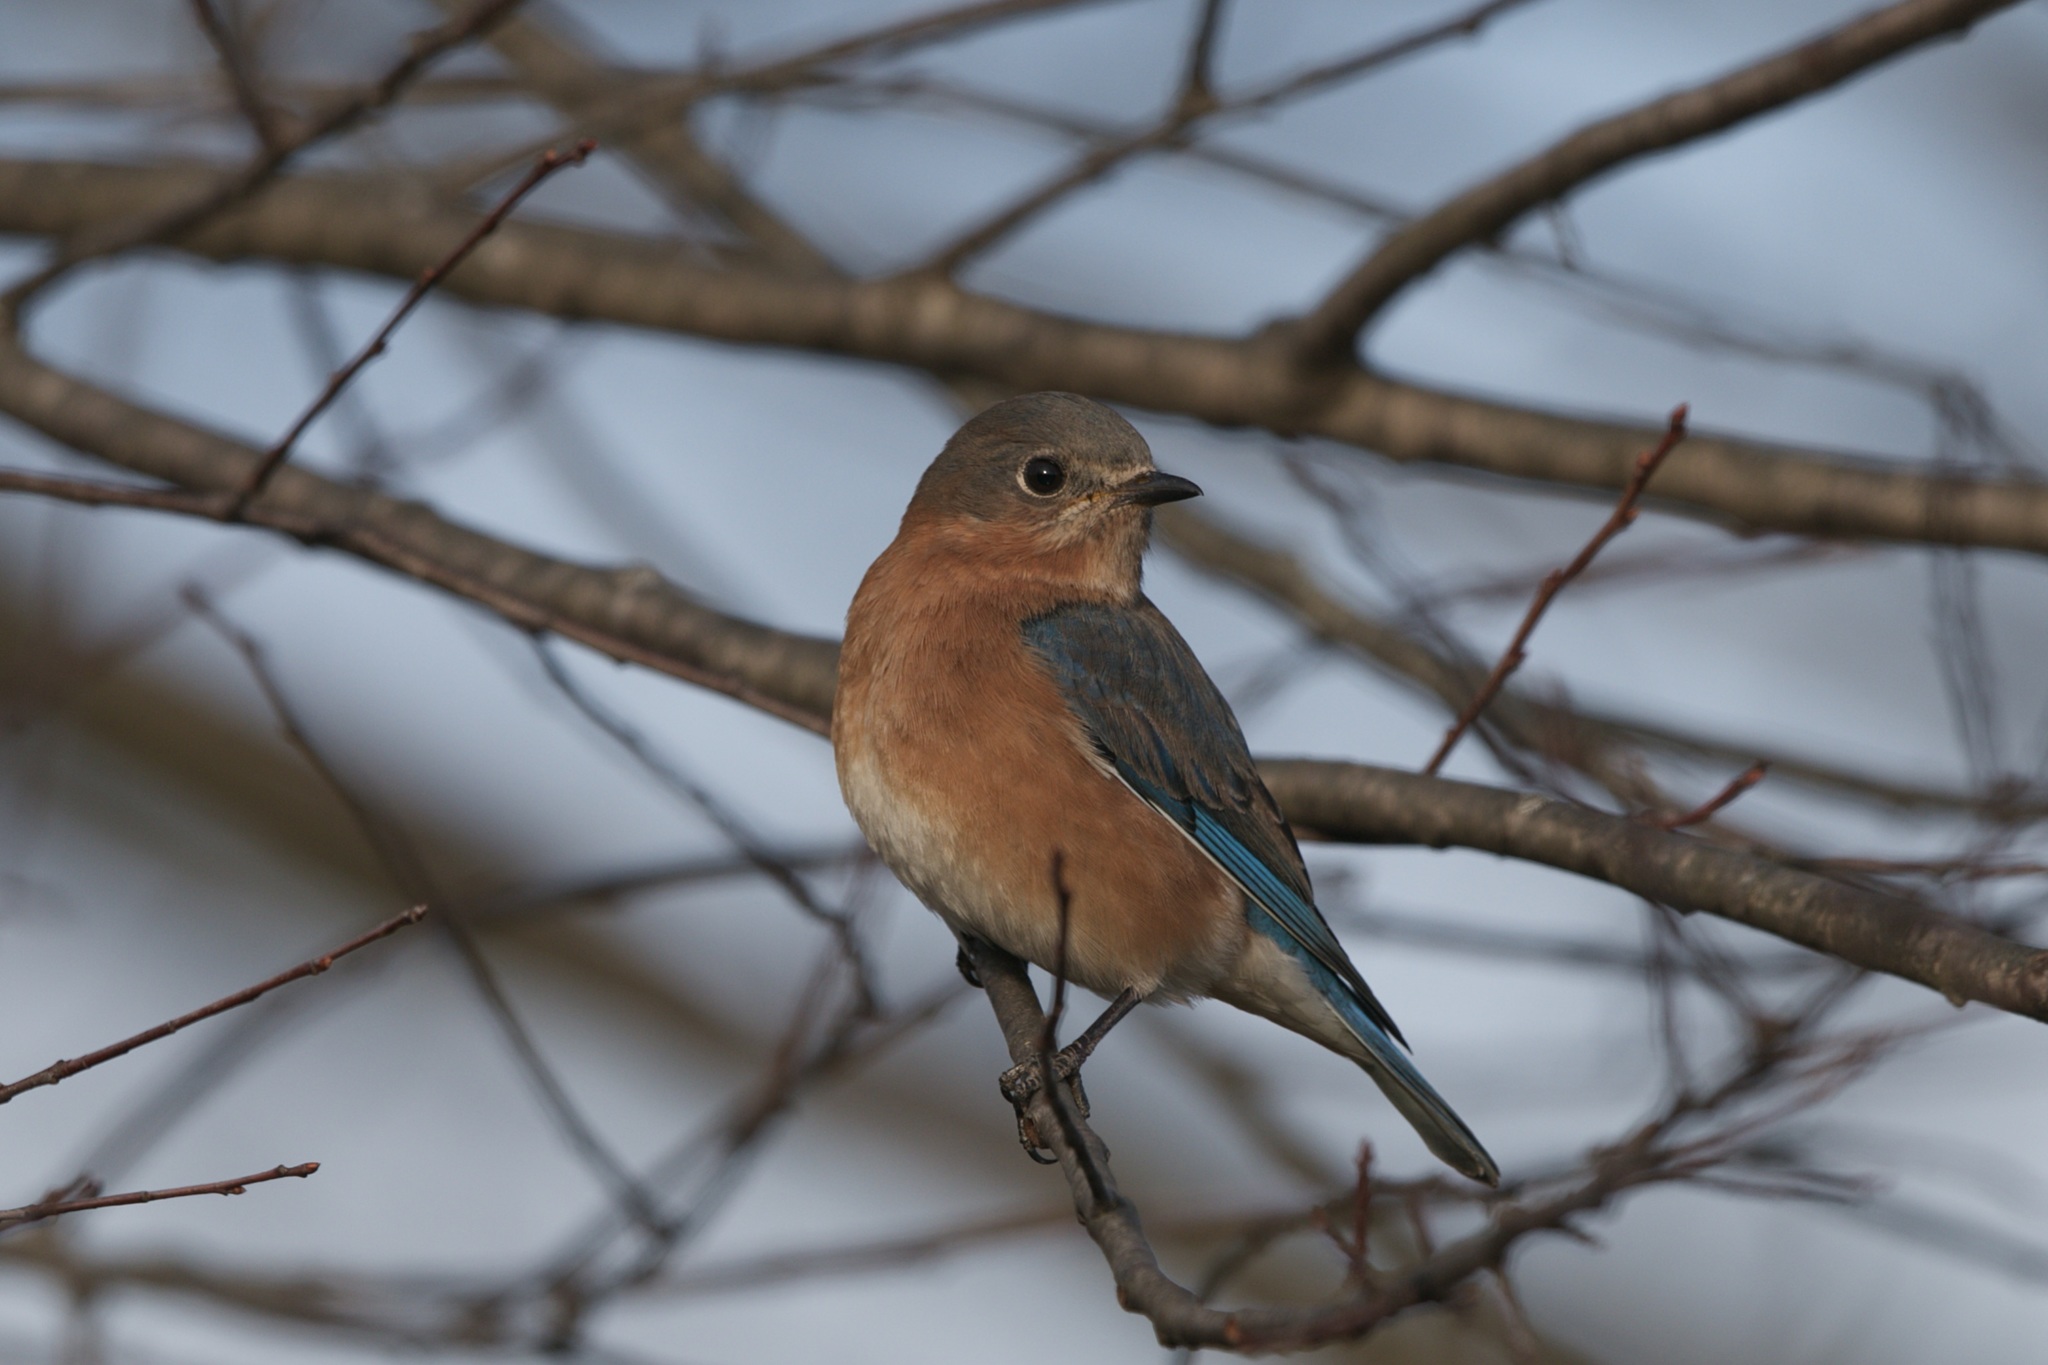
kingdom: Animalia
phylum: Chordata
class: Aves
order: Passeriformes
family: Turdidae
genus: Sialia
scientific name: Sialia sialis
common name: Eastern bluebird
